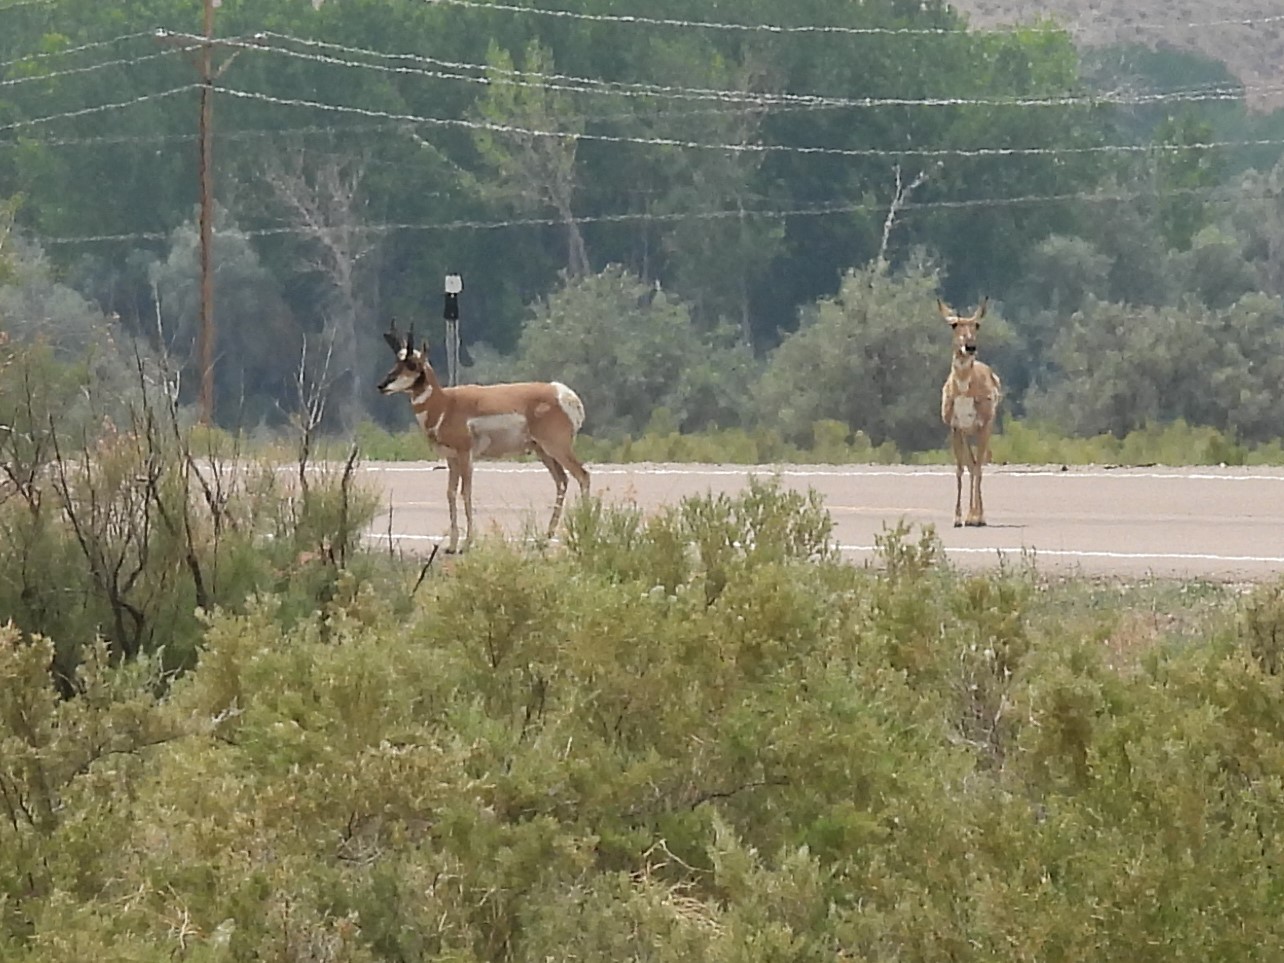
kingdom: Animalia
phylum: Chordata
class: Mammalia
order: Artiodactyla
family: Antilocapridae
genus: Antilocapra
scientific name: Antilocapra americana
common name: Pronghorn
